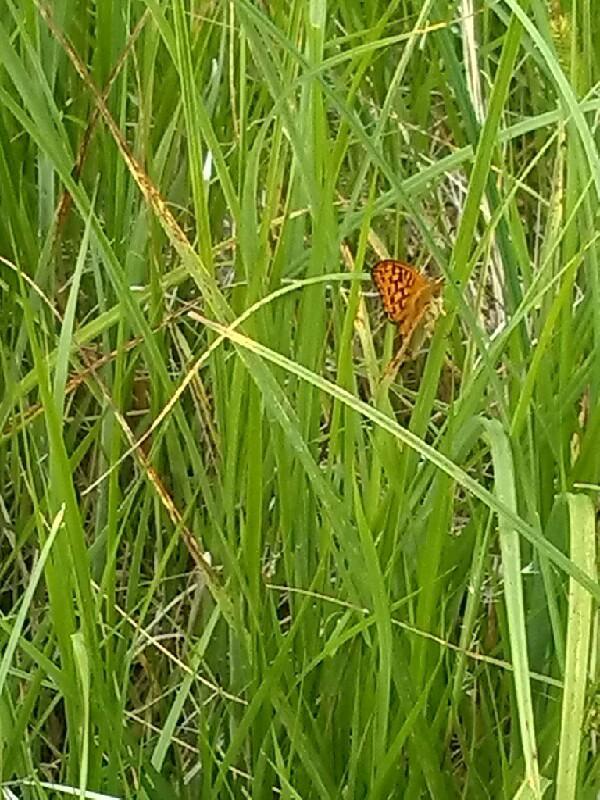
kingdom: Animalia
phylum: Arthropoda
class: Insecta
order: Lepidoptera
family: Nymphalidae
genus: Fabriciana
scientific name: Fabriciana adippe
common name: High brown fritillary
